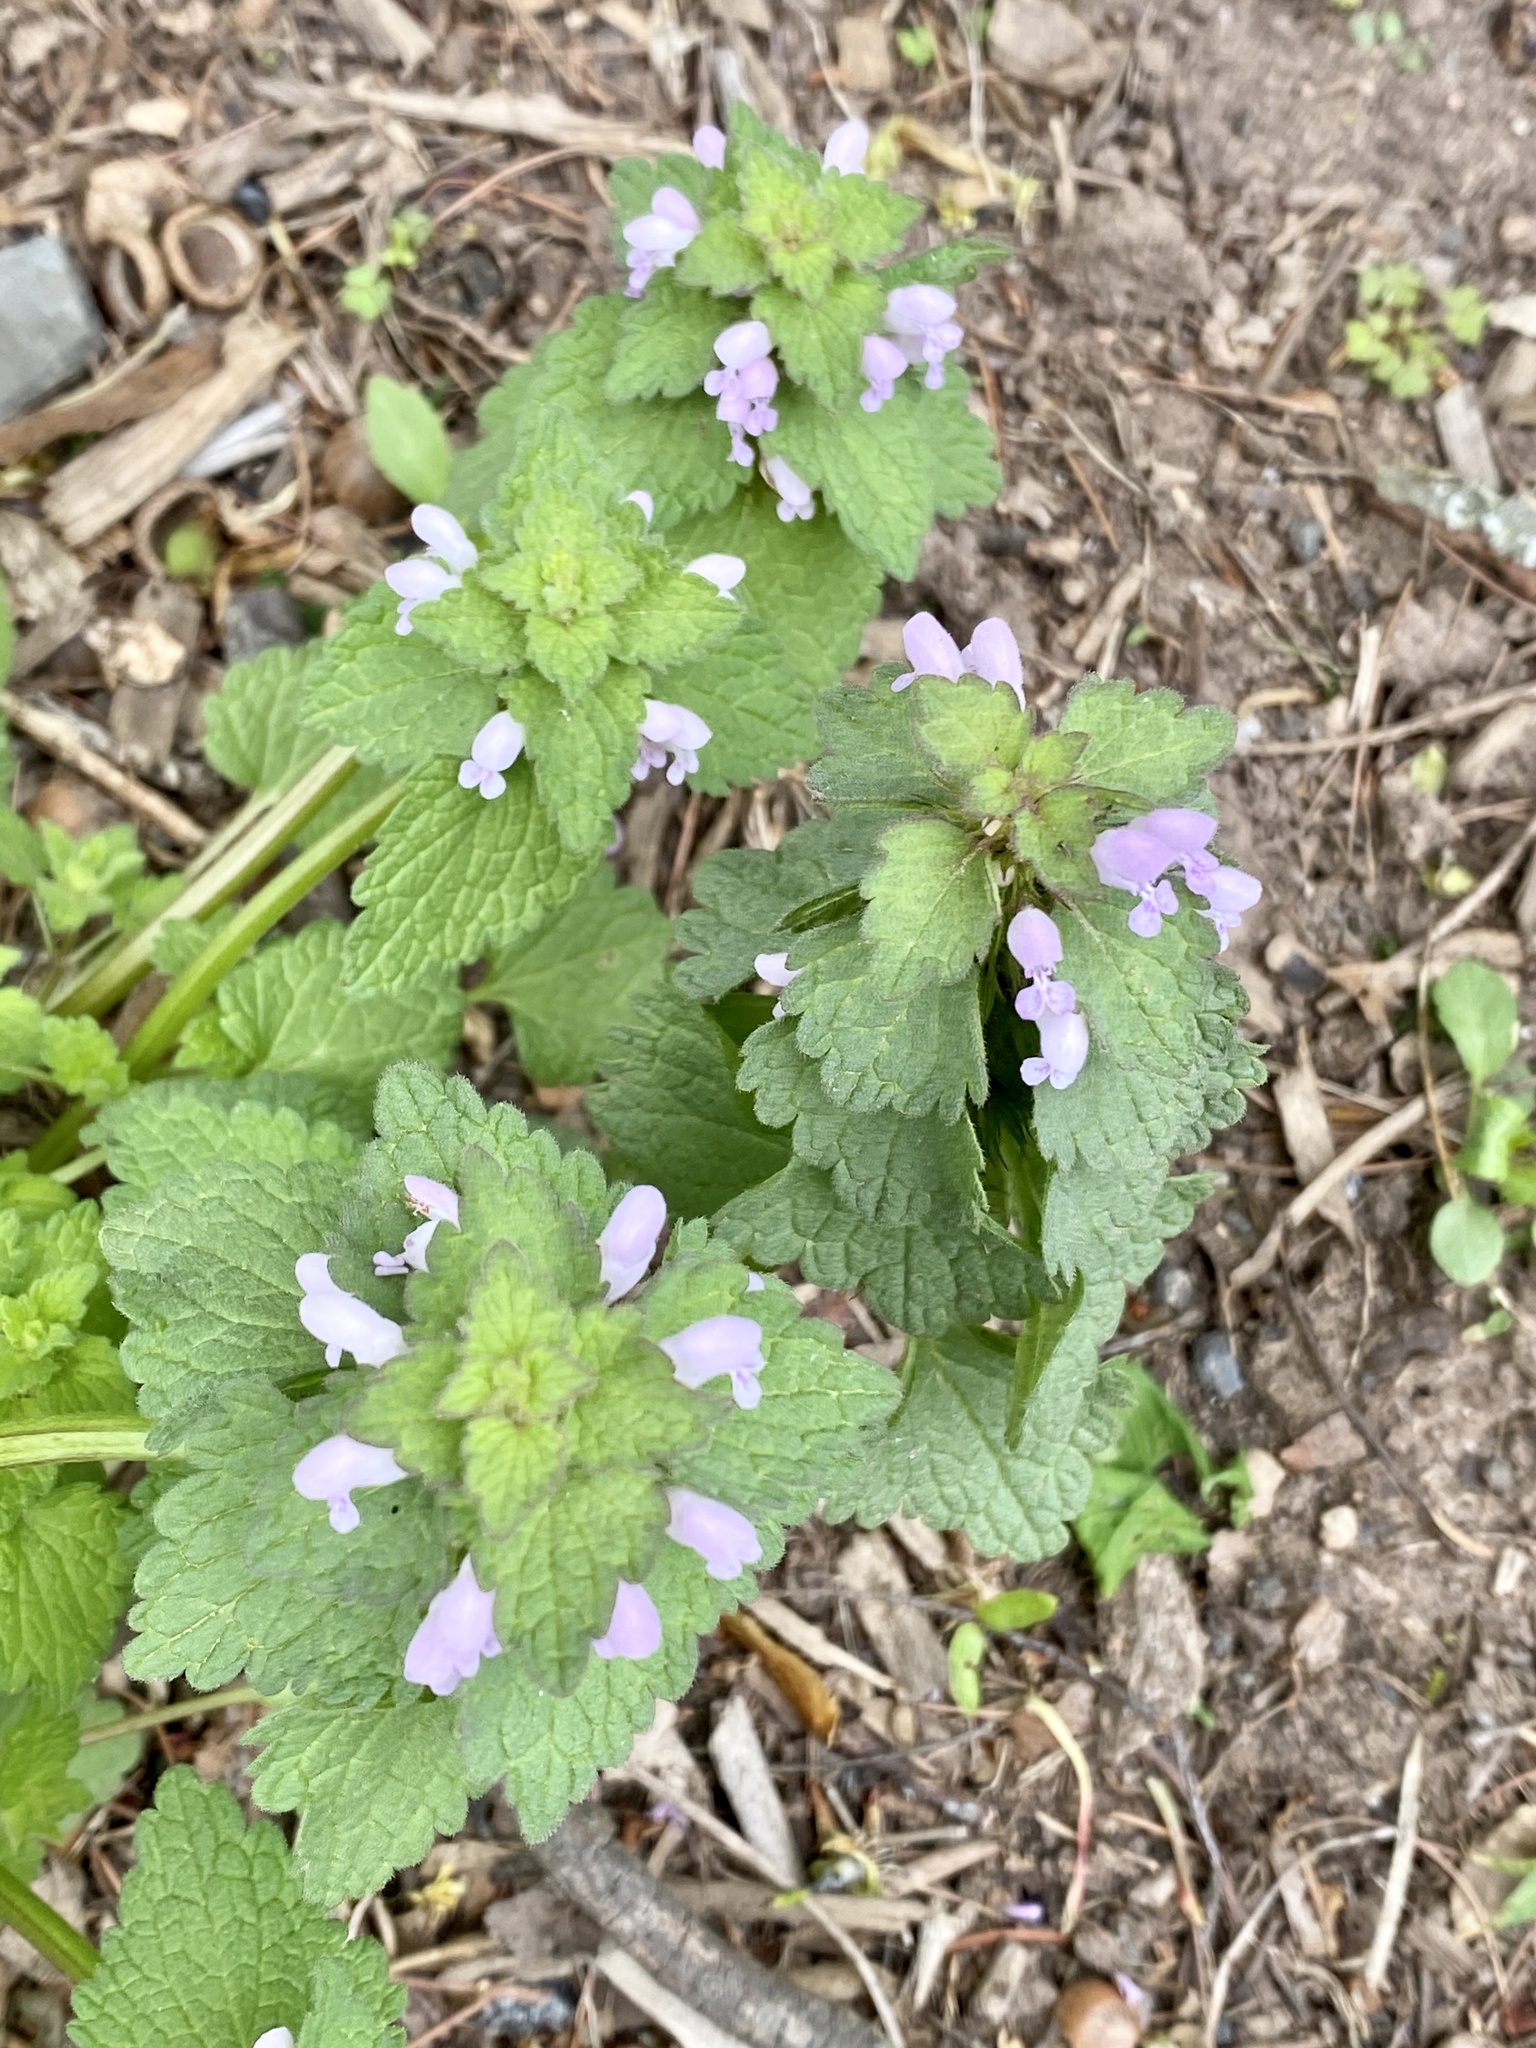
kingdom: Plantae
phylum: Tracheophyta
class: Magnoliopsida
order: Lamiales
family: Lamiaceae
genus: Lamium
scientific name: Lamium purpureum
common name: Red dead-nettle
